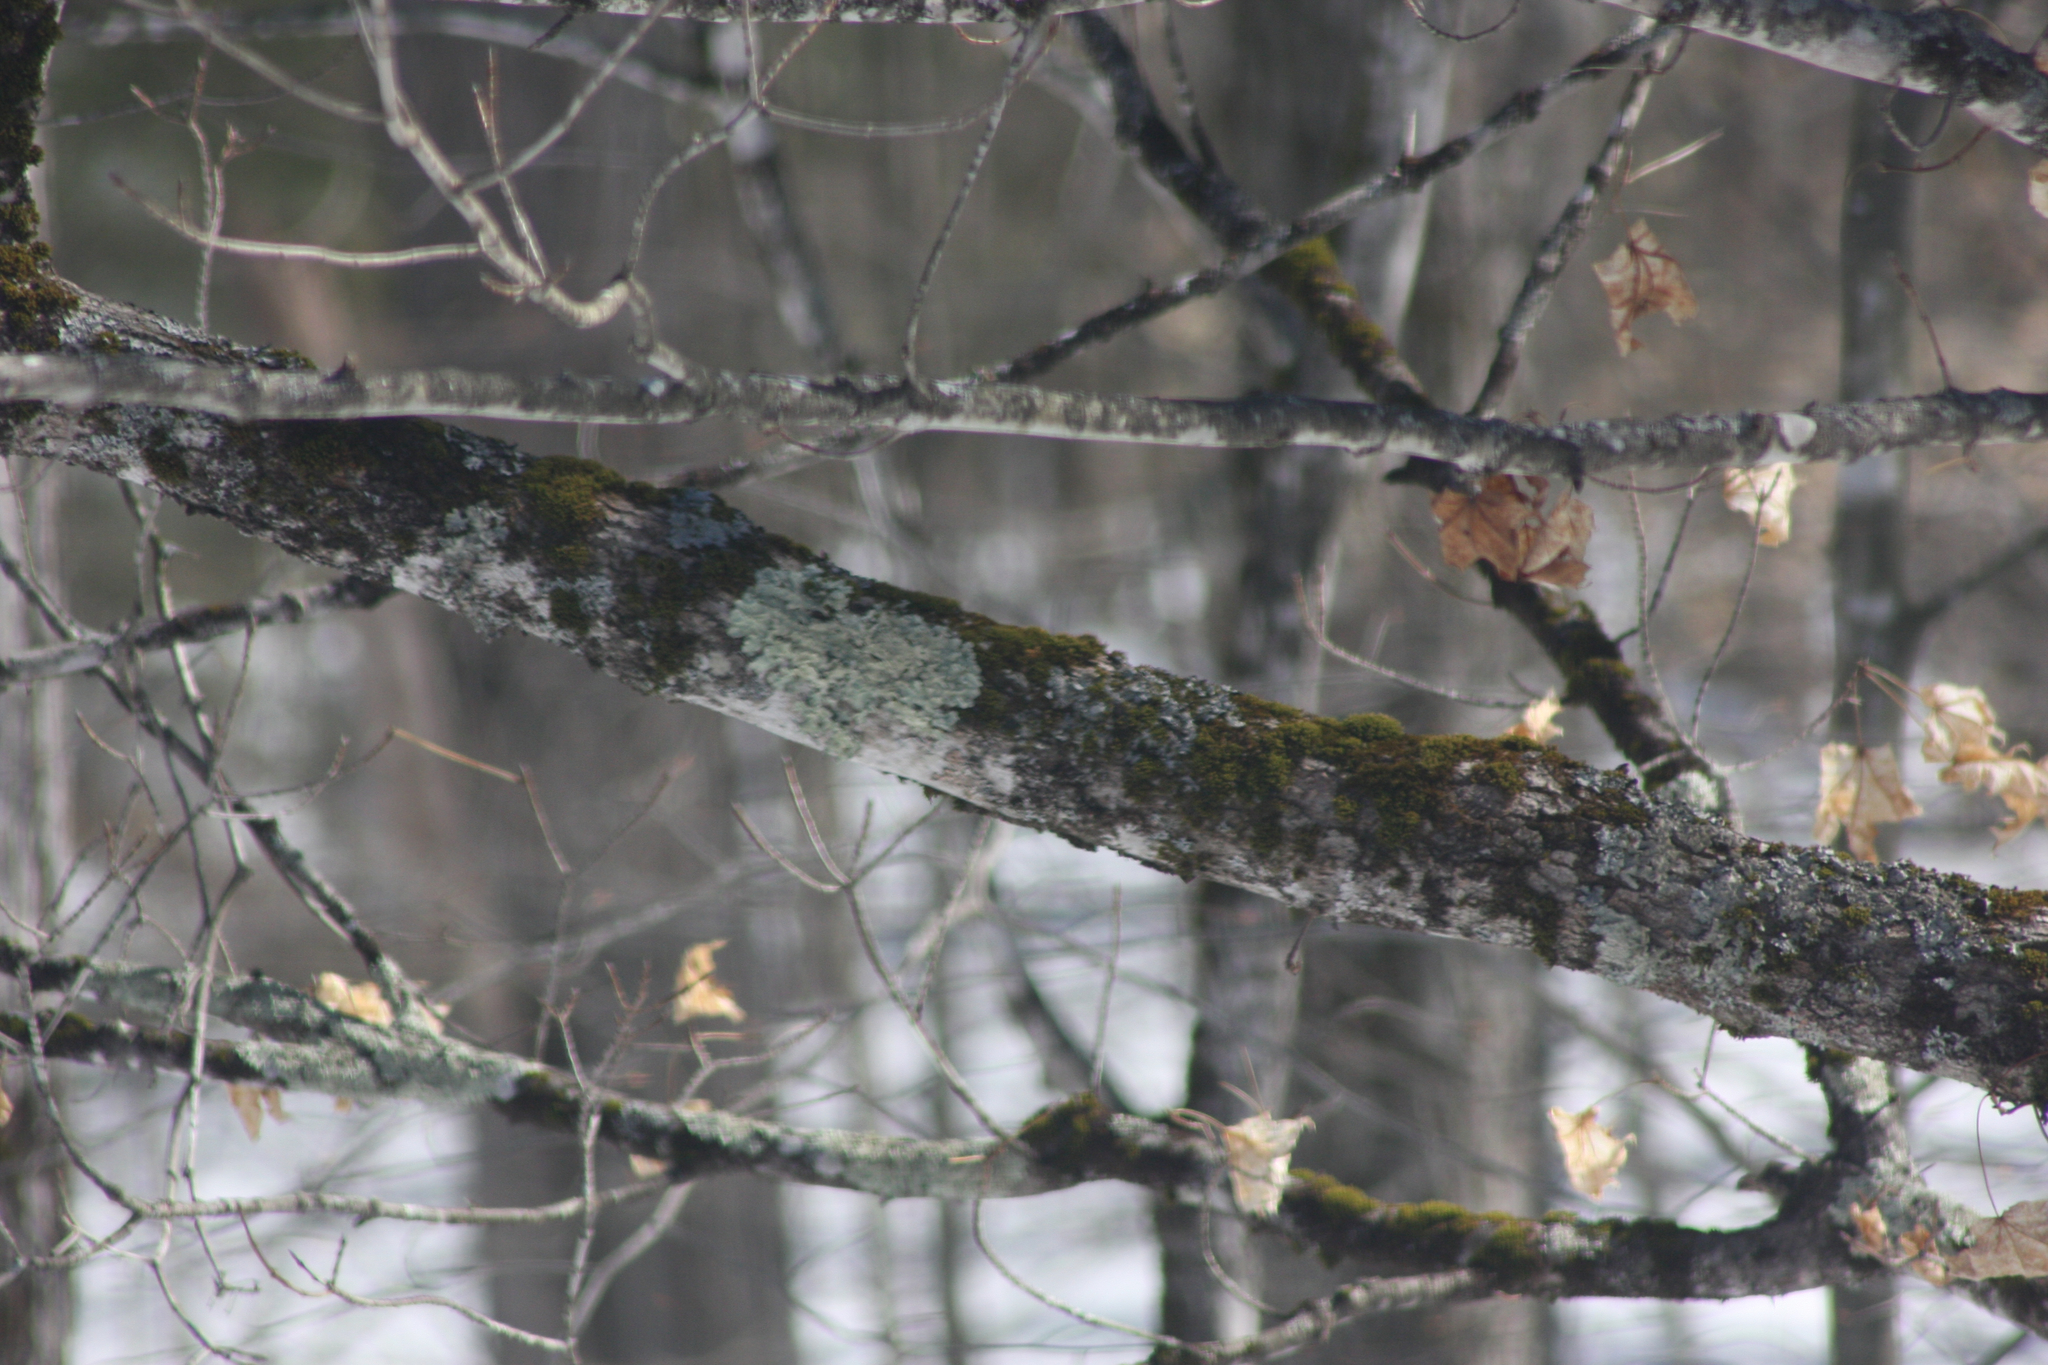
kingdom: Fungi
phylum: Ascomycota
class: Lecanoromycetes
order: Lecanorales
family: Parmeliaceae
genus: Flavoparmelia
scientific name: Flavoparmelia caperata
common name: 40-mile per hour lichen
